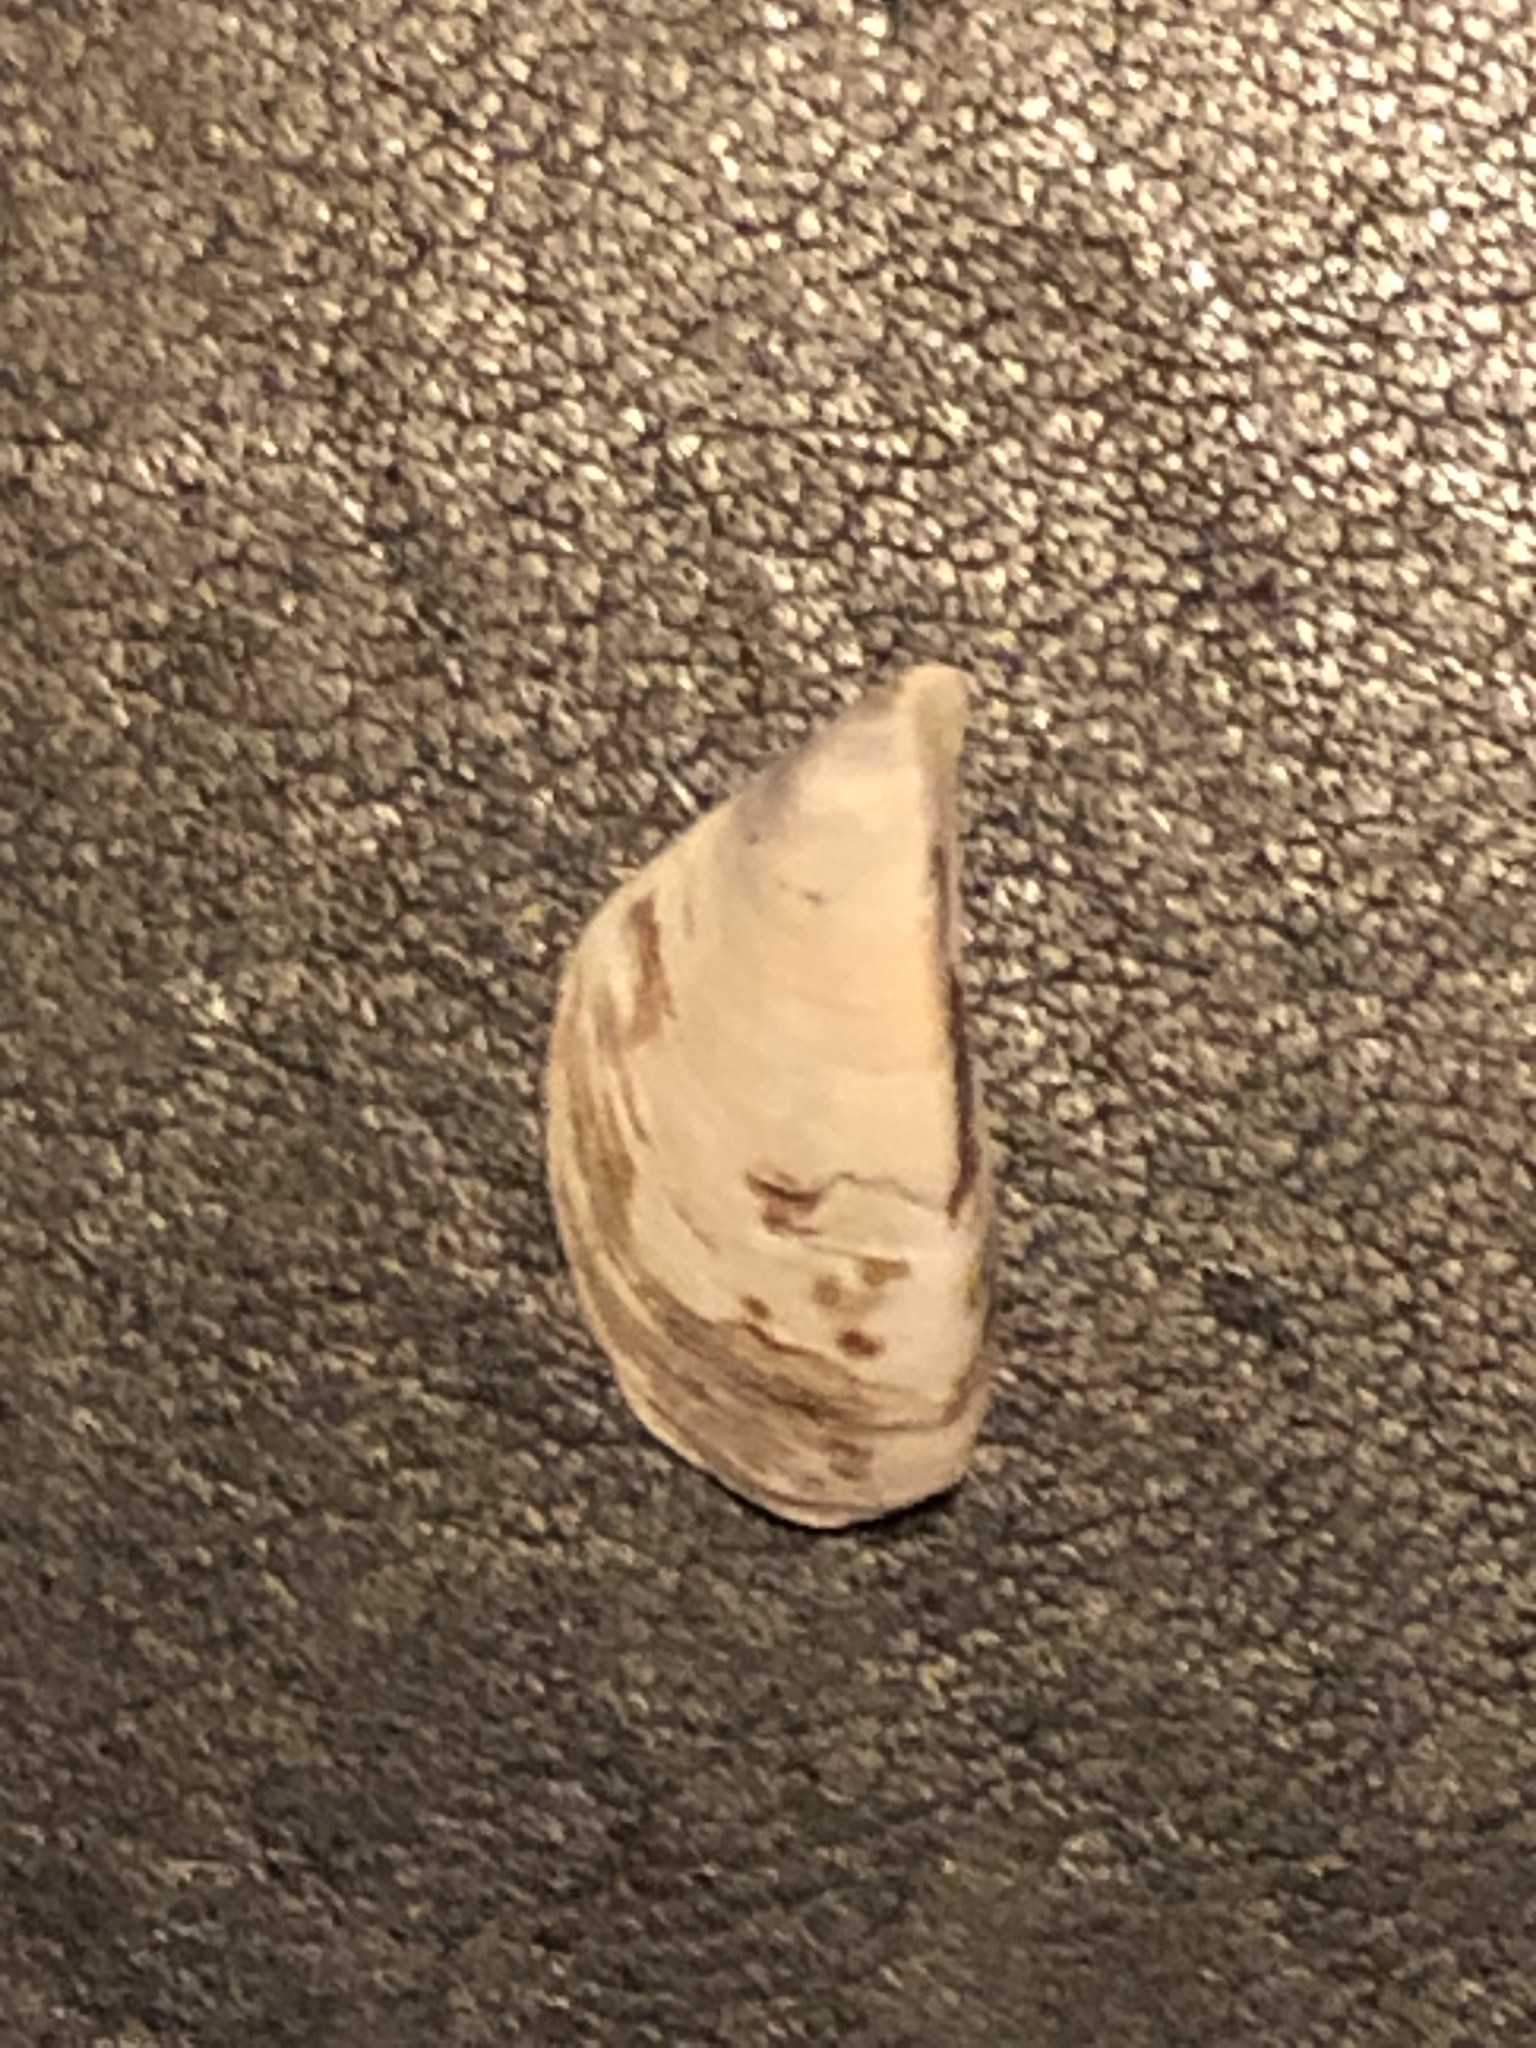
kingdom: Animalia
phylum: Mollusca
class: Bivalvia
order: Myida
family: Dreissenidae
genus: Dreissena
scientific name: Dreissena polymorpha
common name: Zebra mussel
